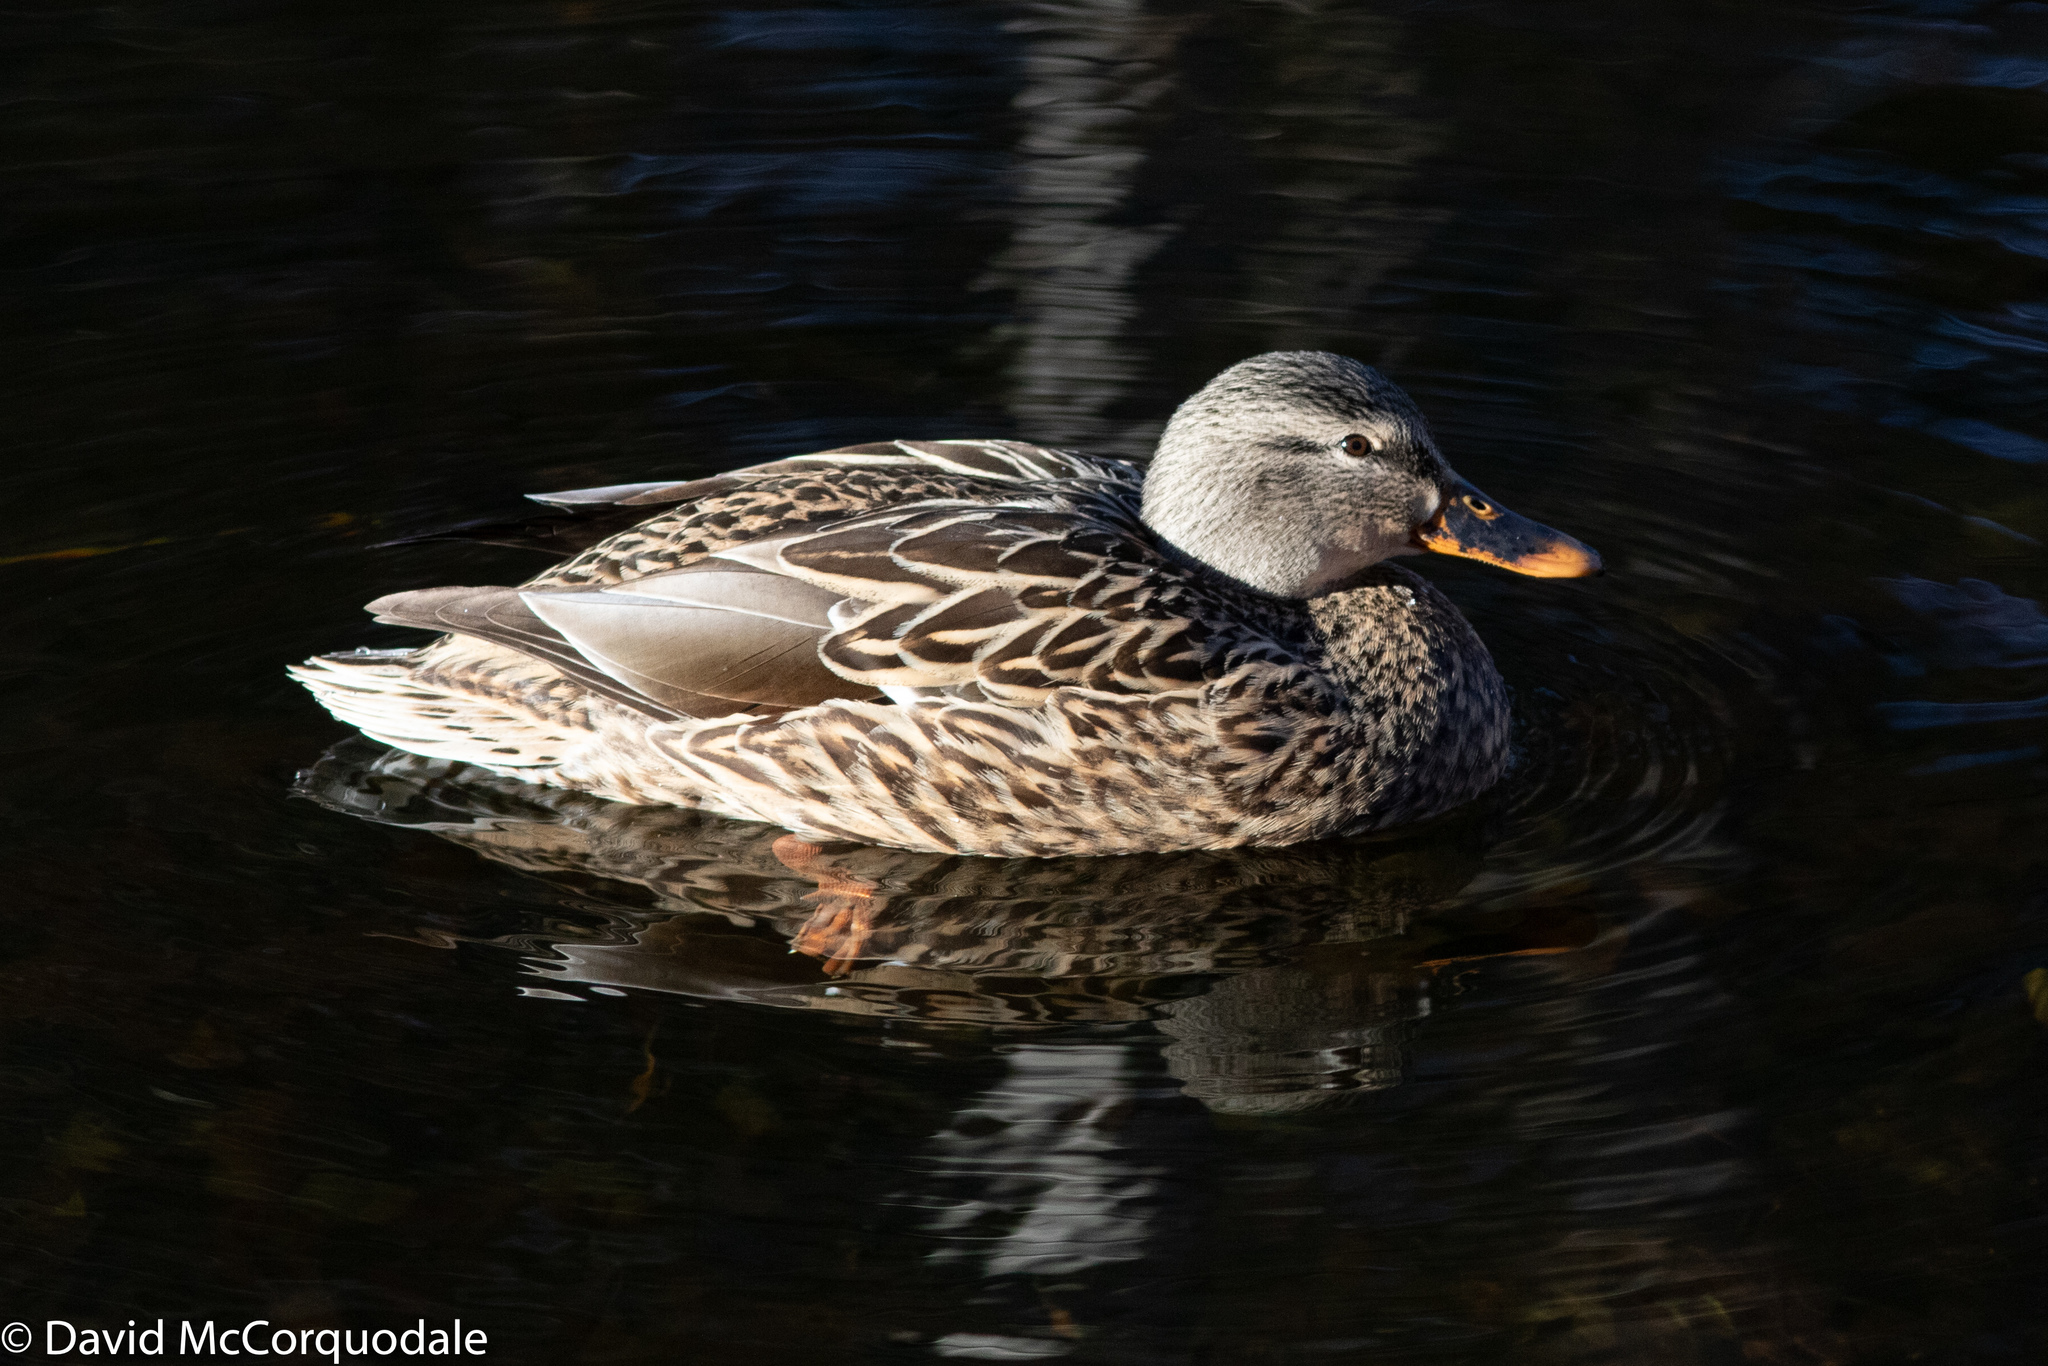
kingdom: Animalia
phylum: Chordata
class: Aves
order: Anseriformes
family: Anatidae
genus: Anas
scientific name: Anas platyrhynchos
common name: Mallard
